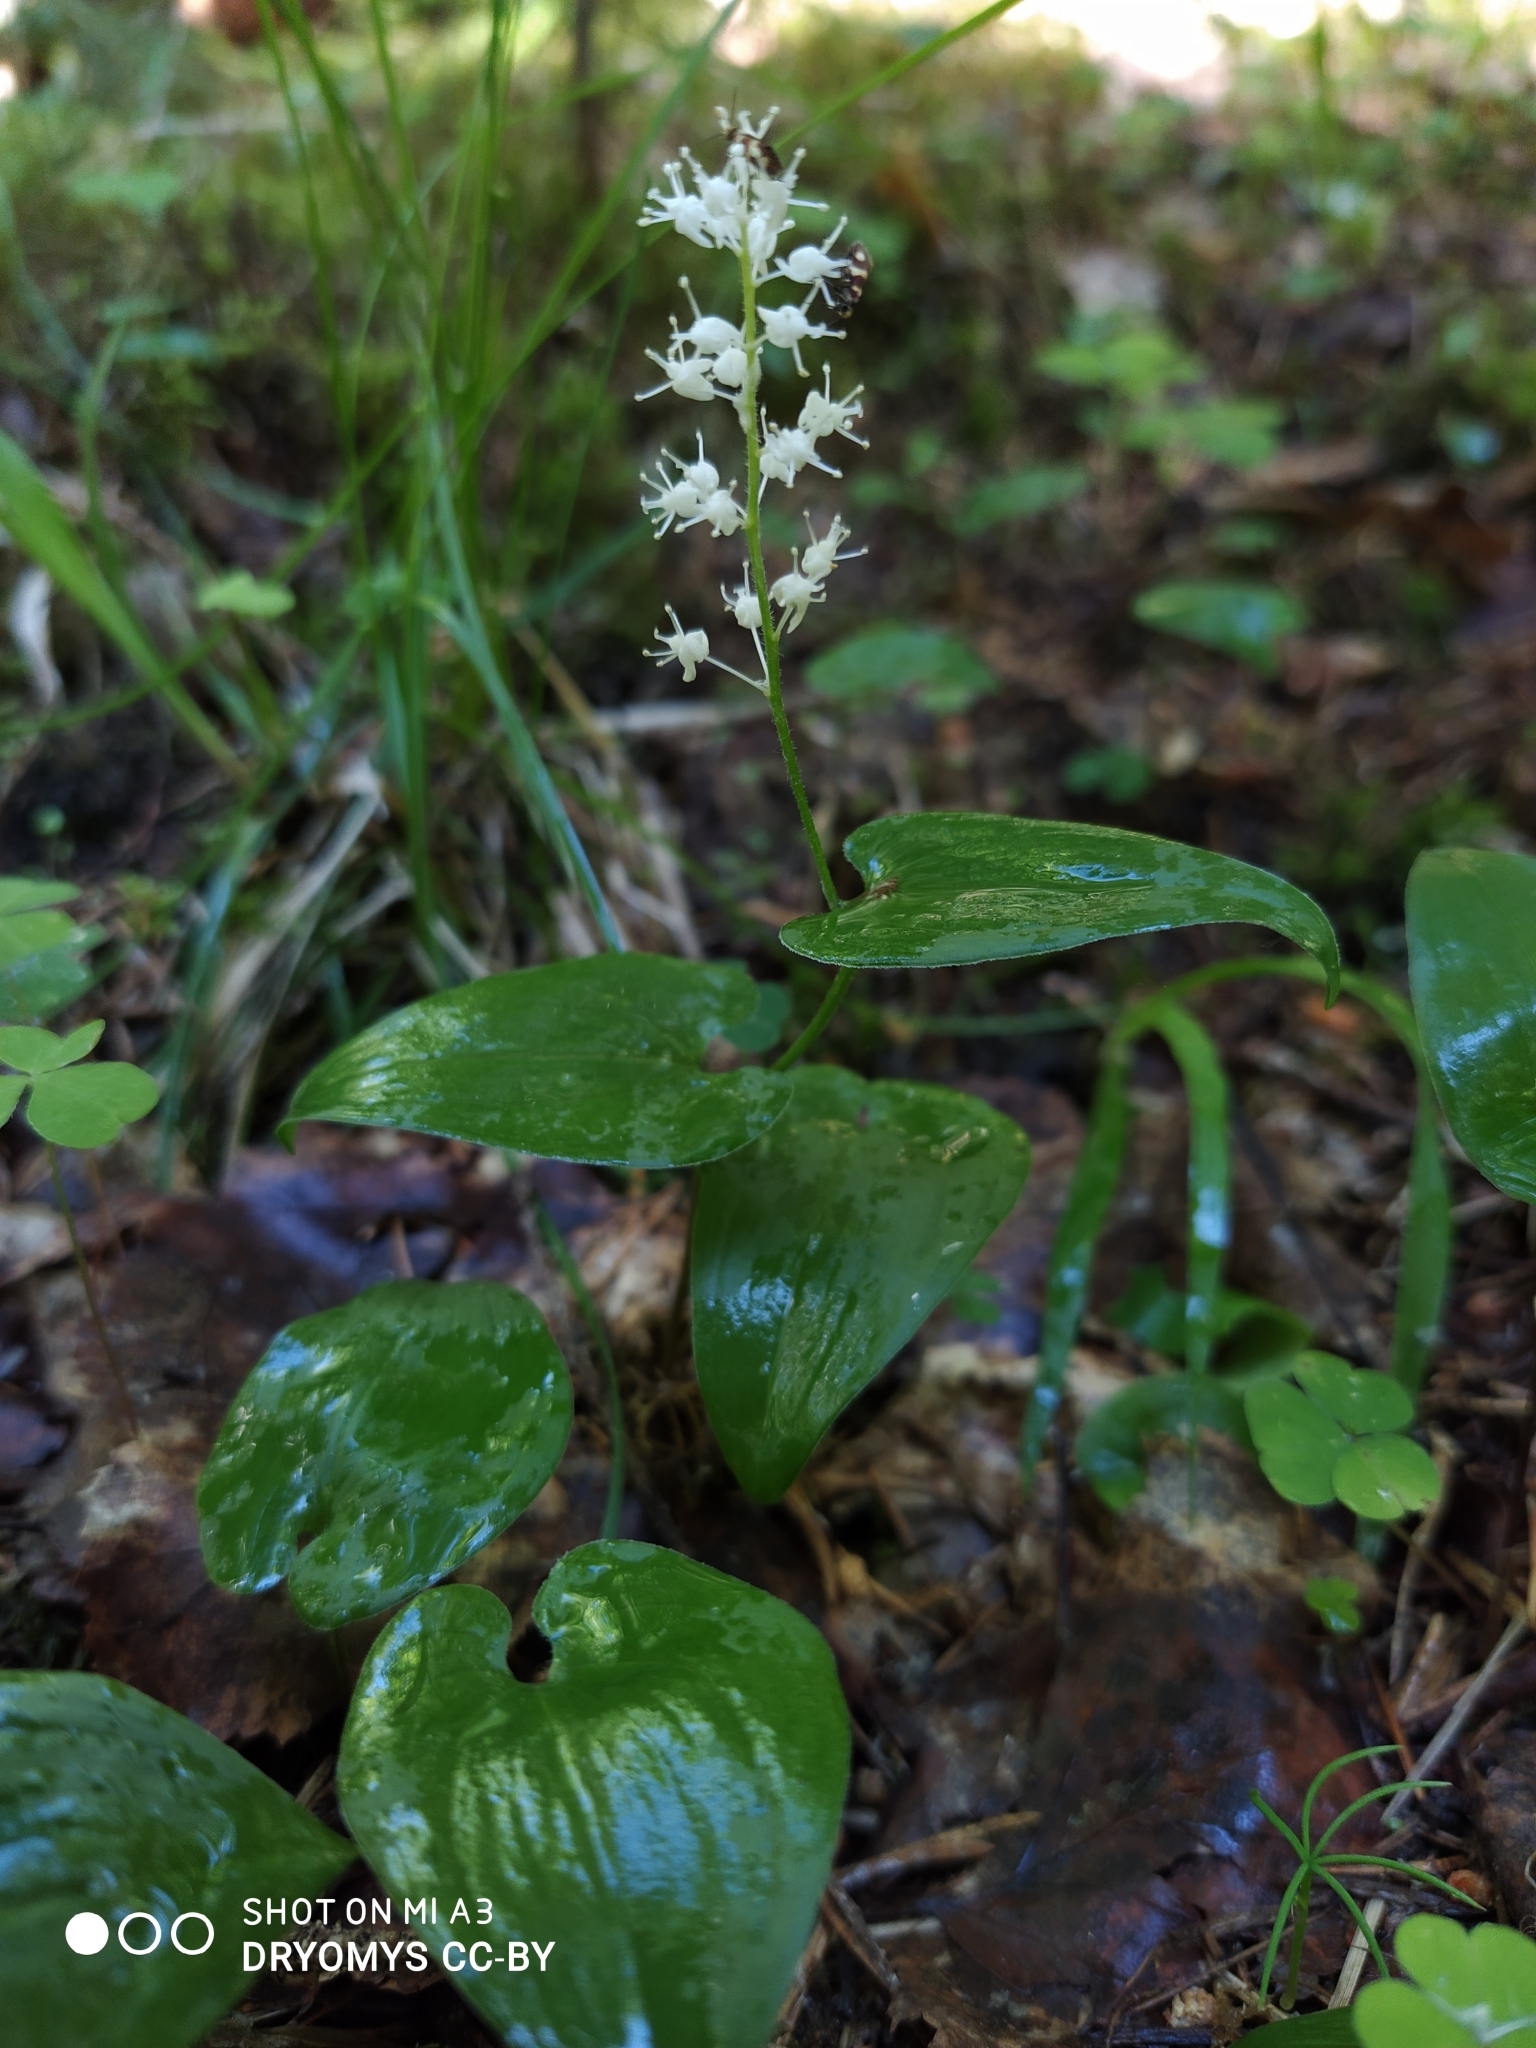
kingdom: Plantae
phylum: Tracheophyta
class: Liliopsida
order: Asparagales
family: Asparagaceae
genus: Maianthemum
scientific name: Maianthemum bifolium
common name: May lily
